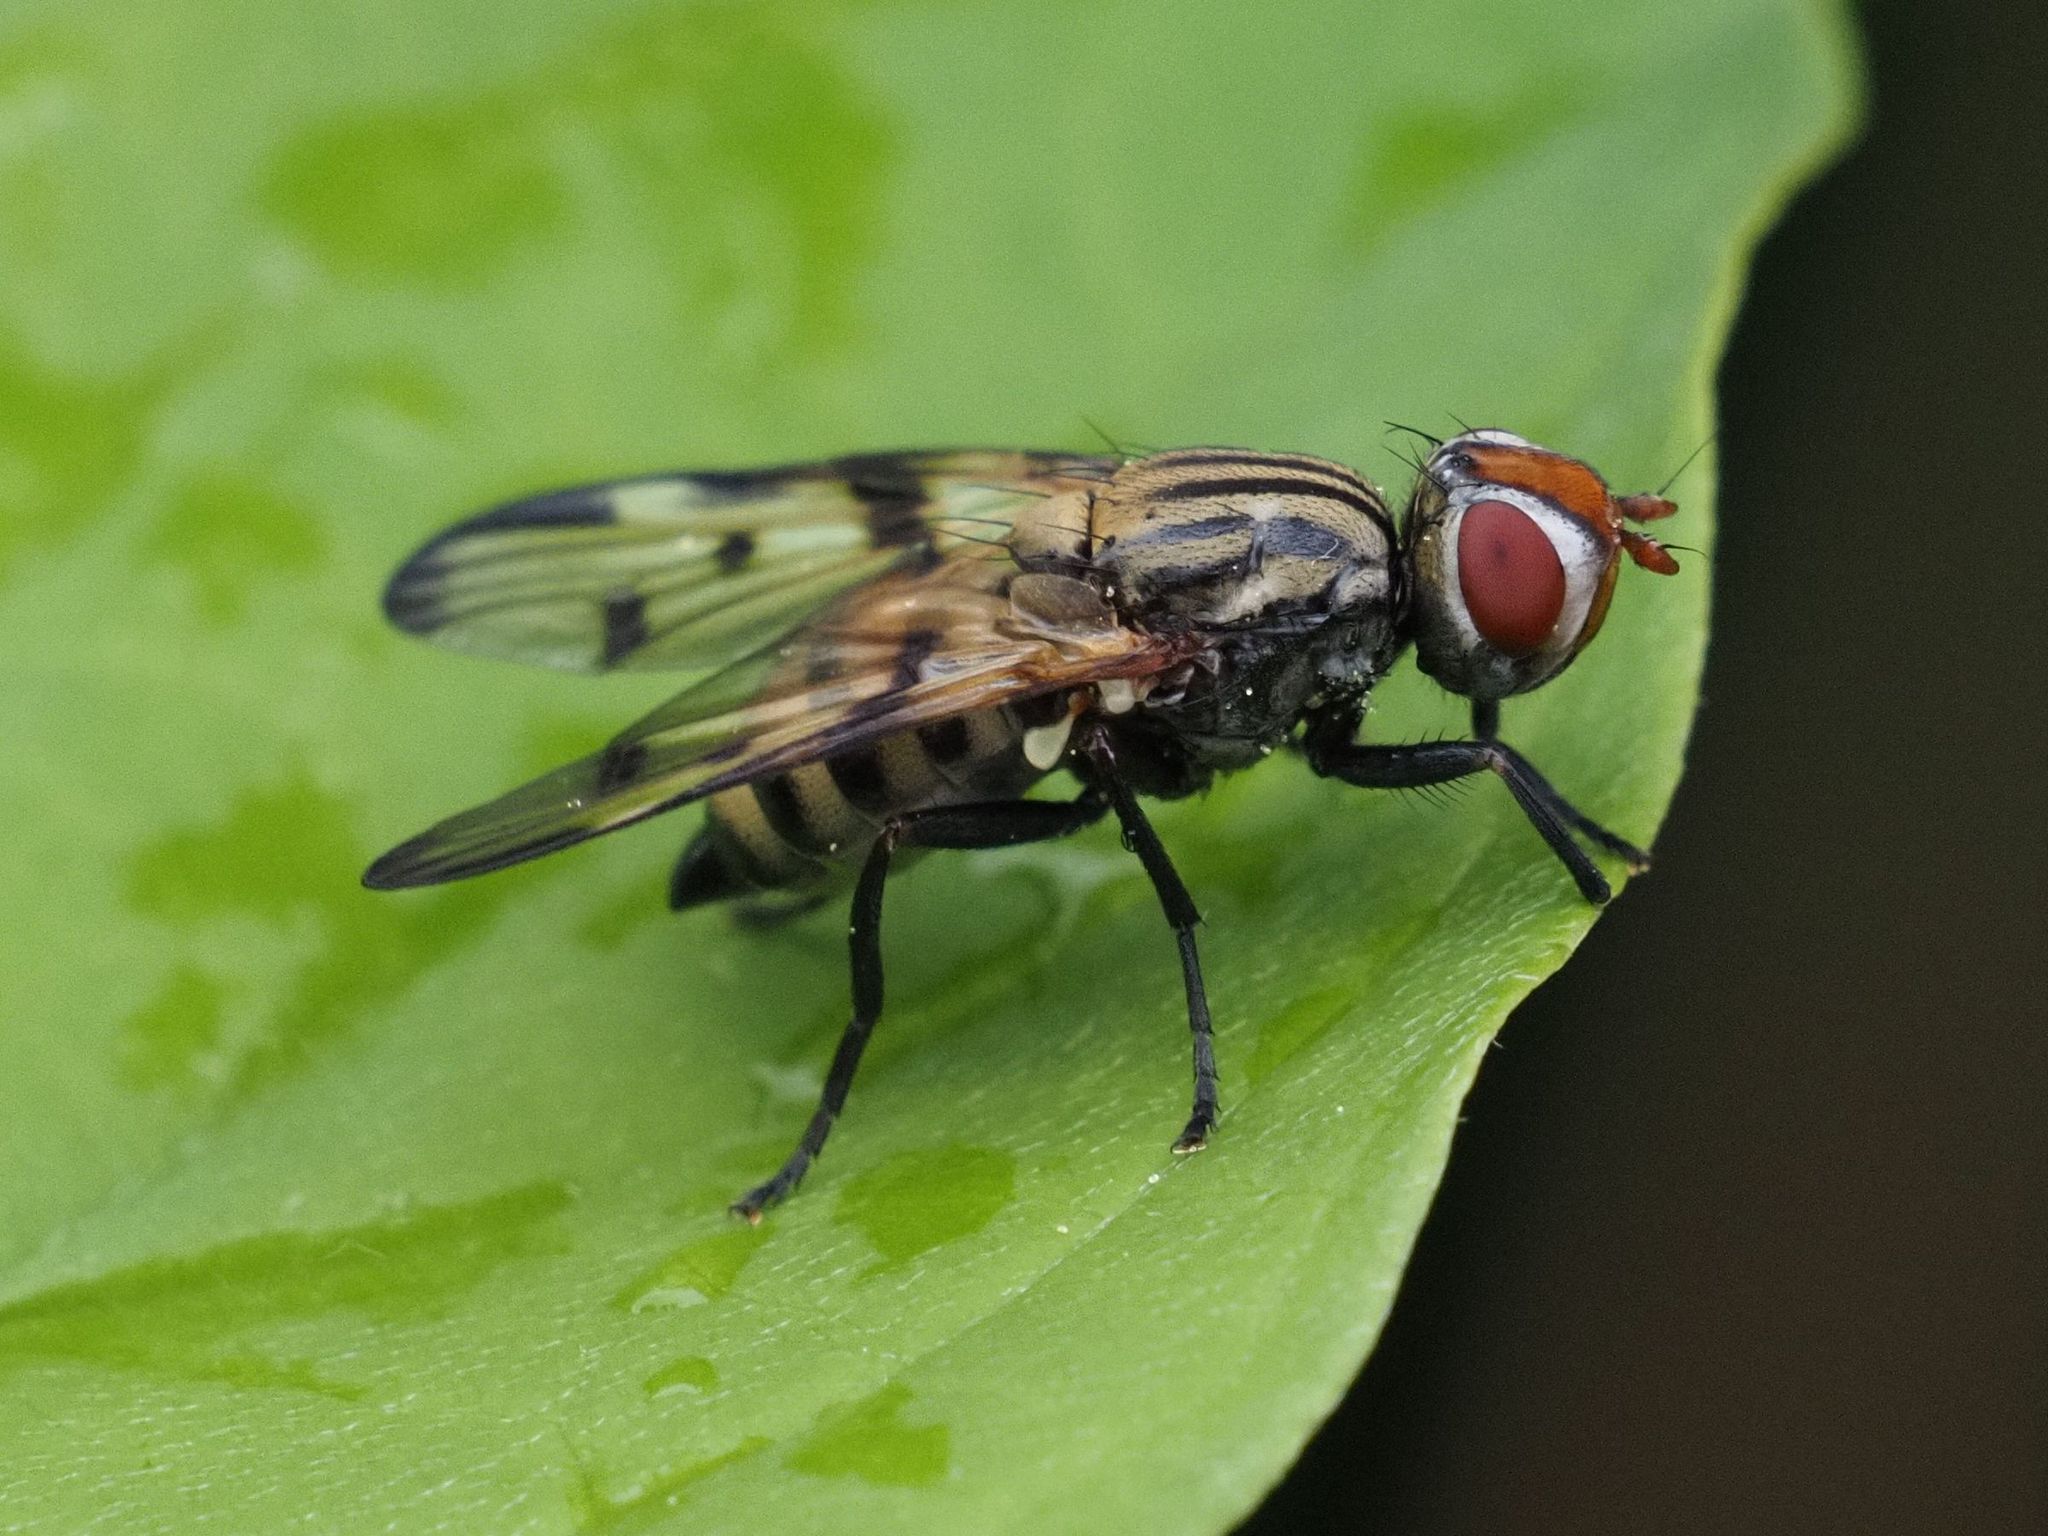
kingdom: Animalia
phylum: Arthropoda
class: Insecta
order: Diptera
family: Ulidiidae
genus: Otites
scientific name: Otites formosa
